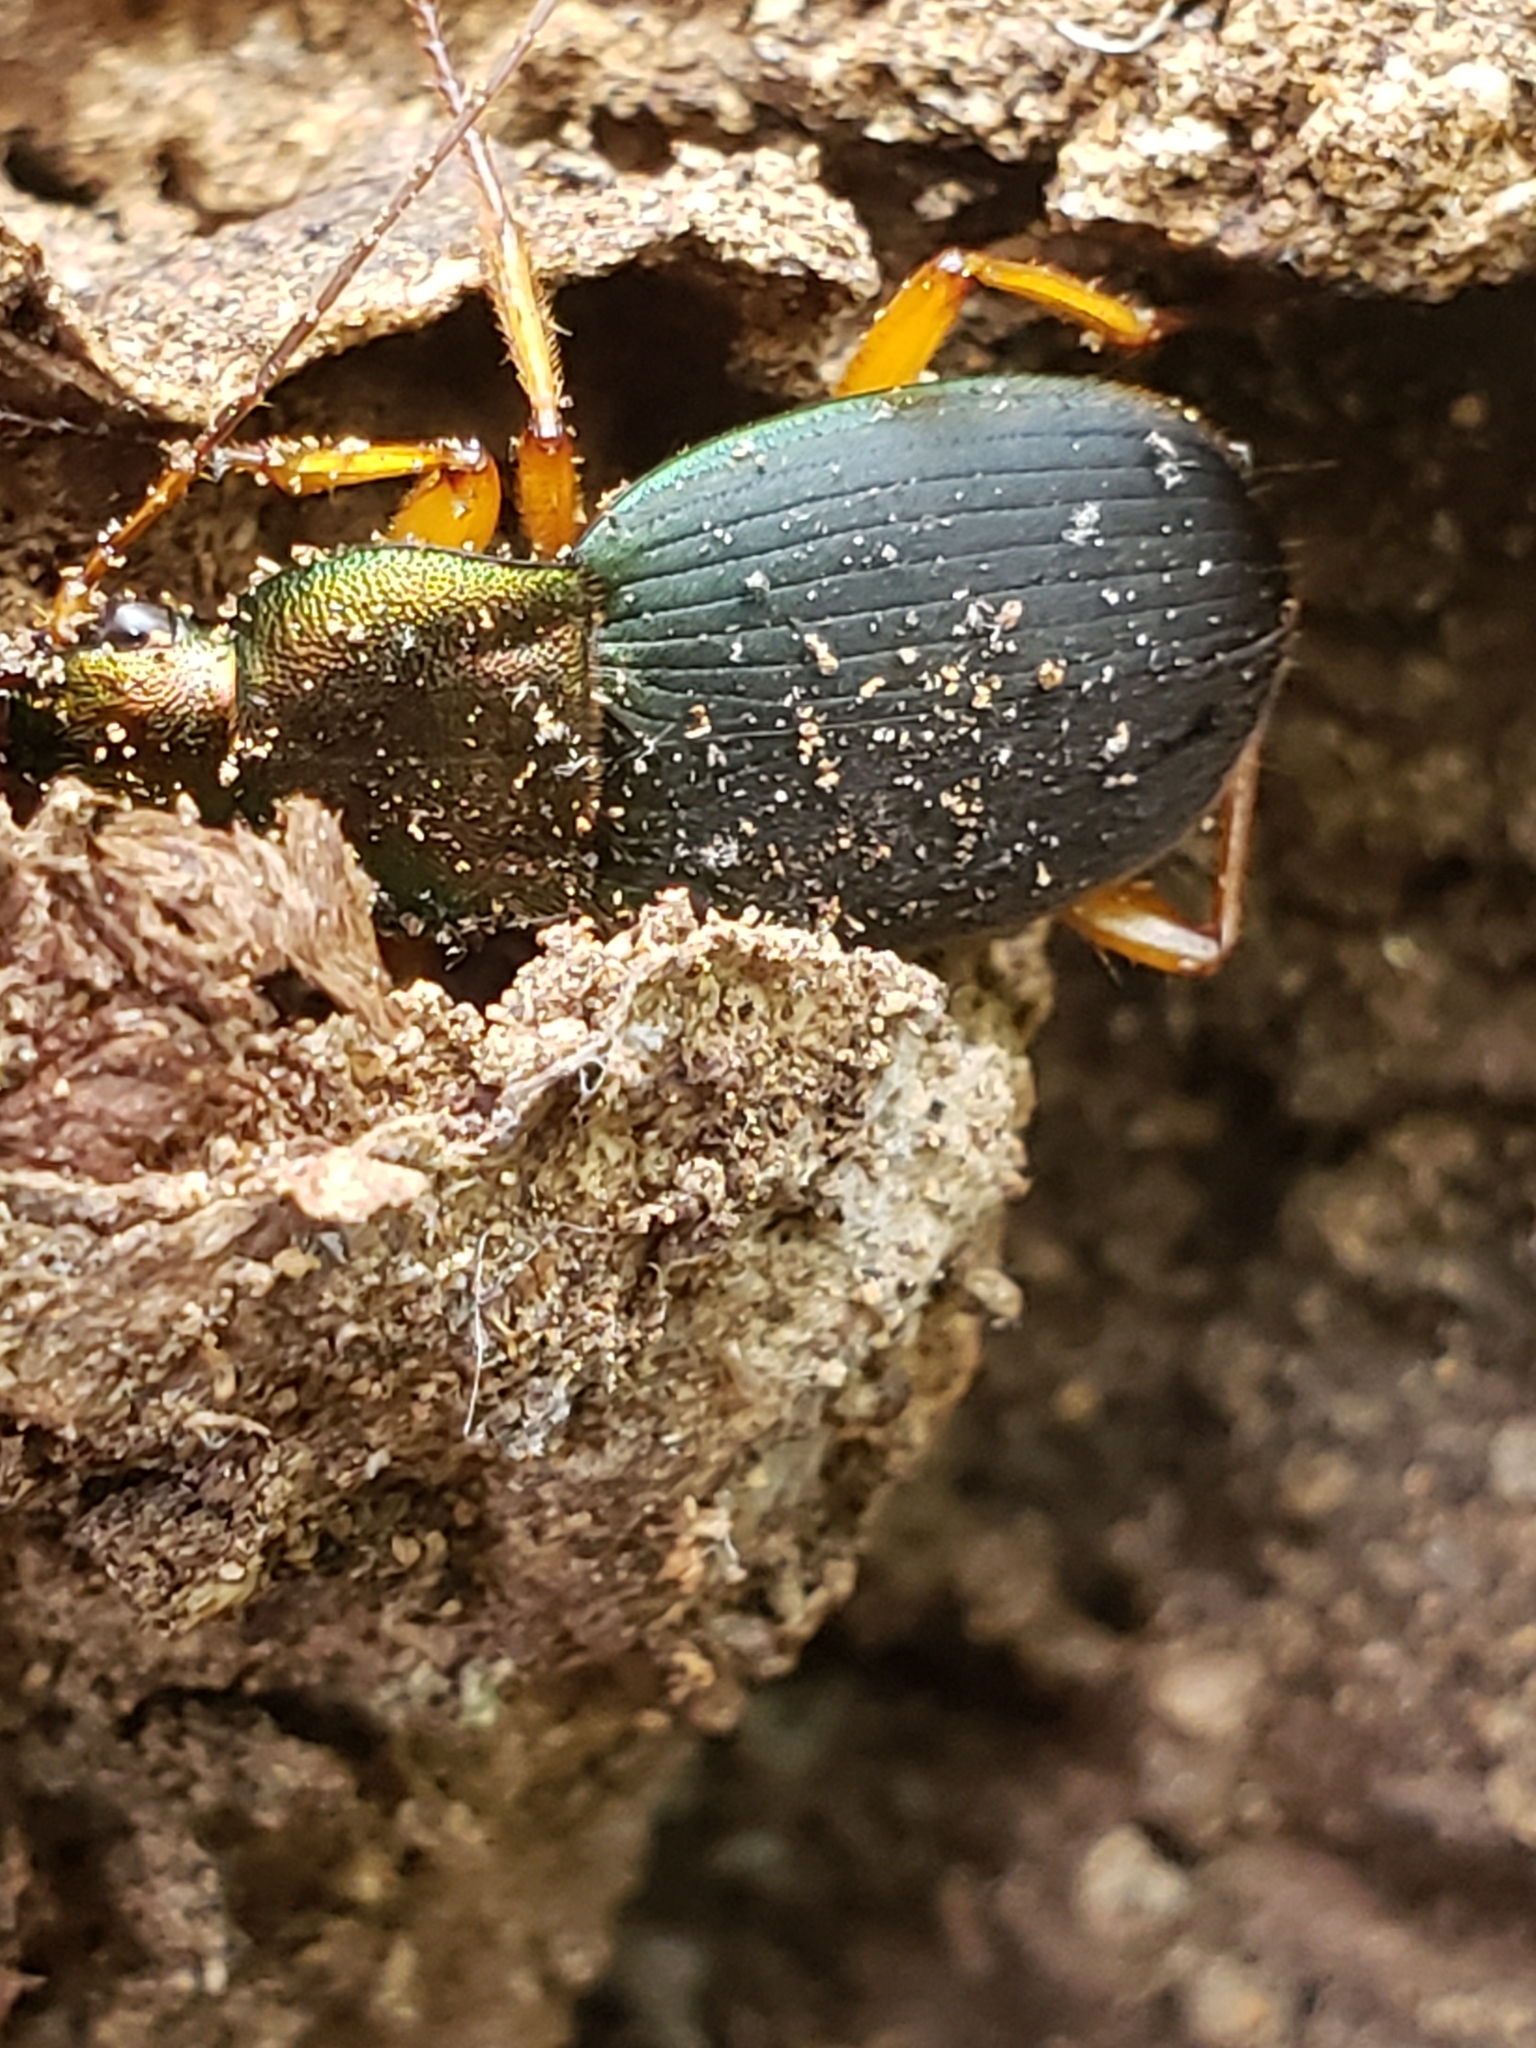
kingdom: Animalia
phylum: Arthropoda
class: Insecta
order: Coleoptera
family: Carabidae
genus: Chlaenius
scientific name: Chlaenius aestivus
